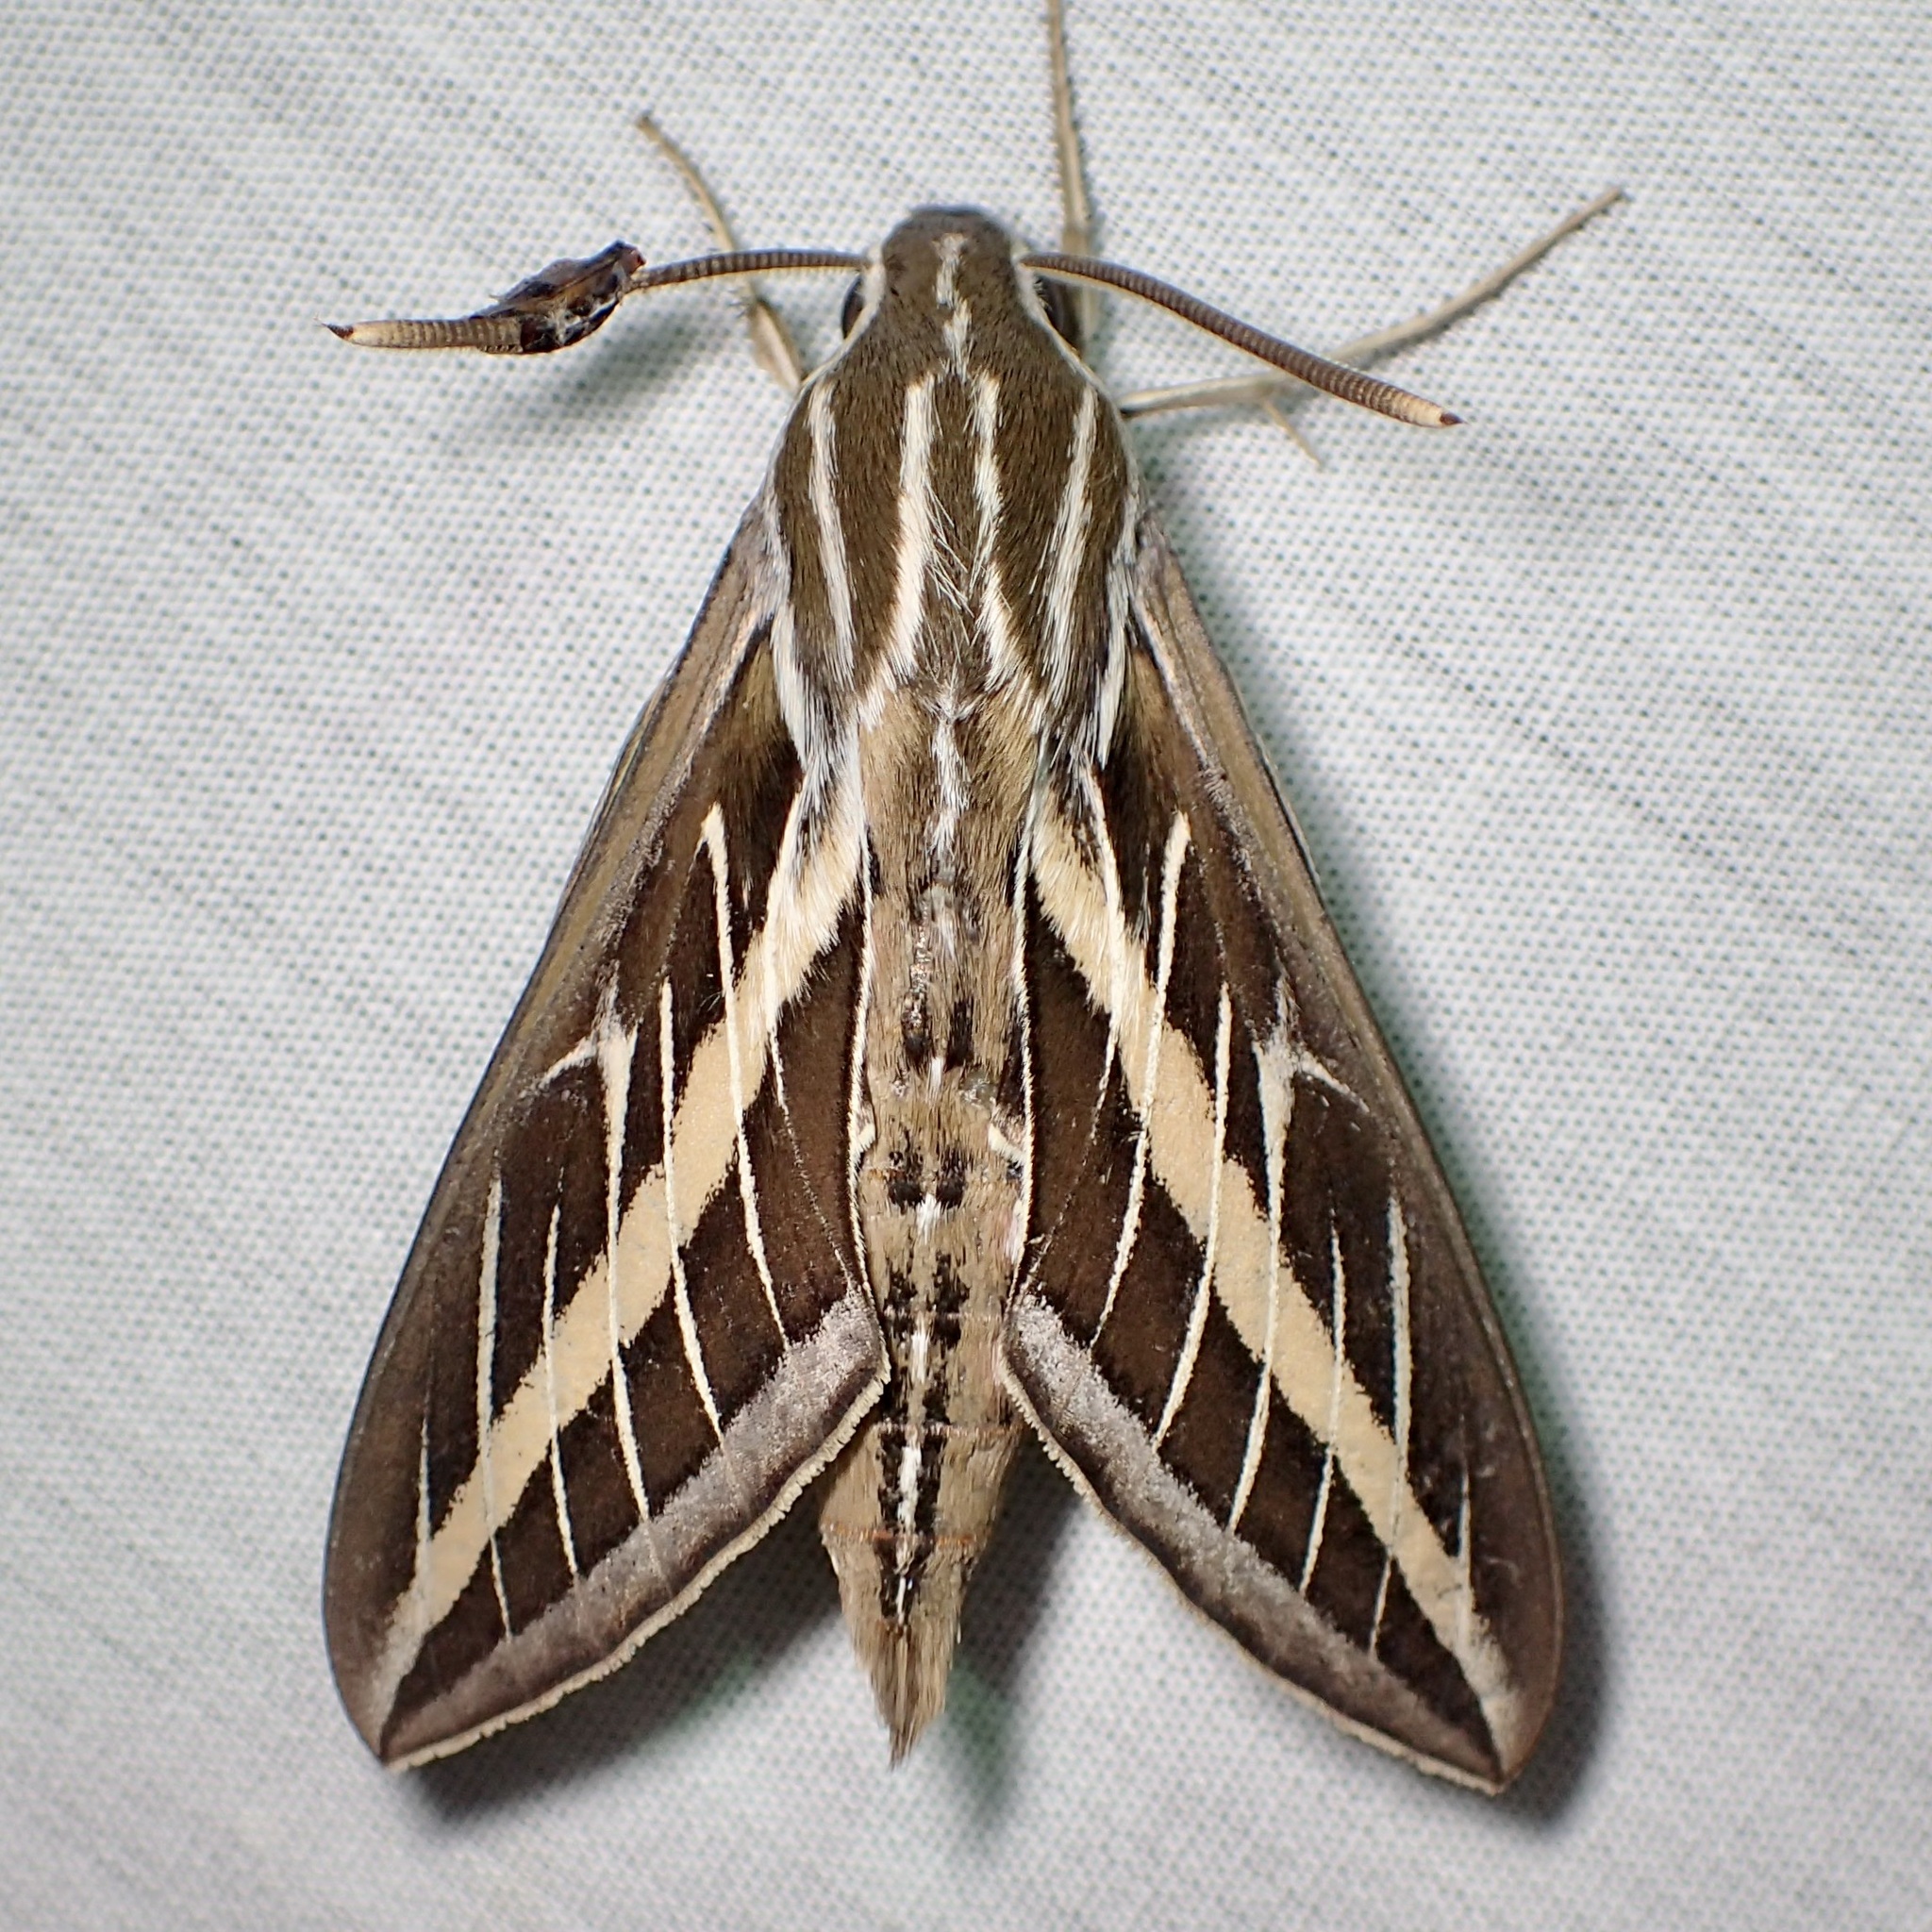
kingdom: Animalia
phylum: Arthropoda
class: Insecta
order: Lepidoptera
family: Sphingidae
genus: Hyles
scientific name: Hyles lineata
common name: White-lined sphinx
